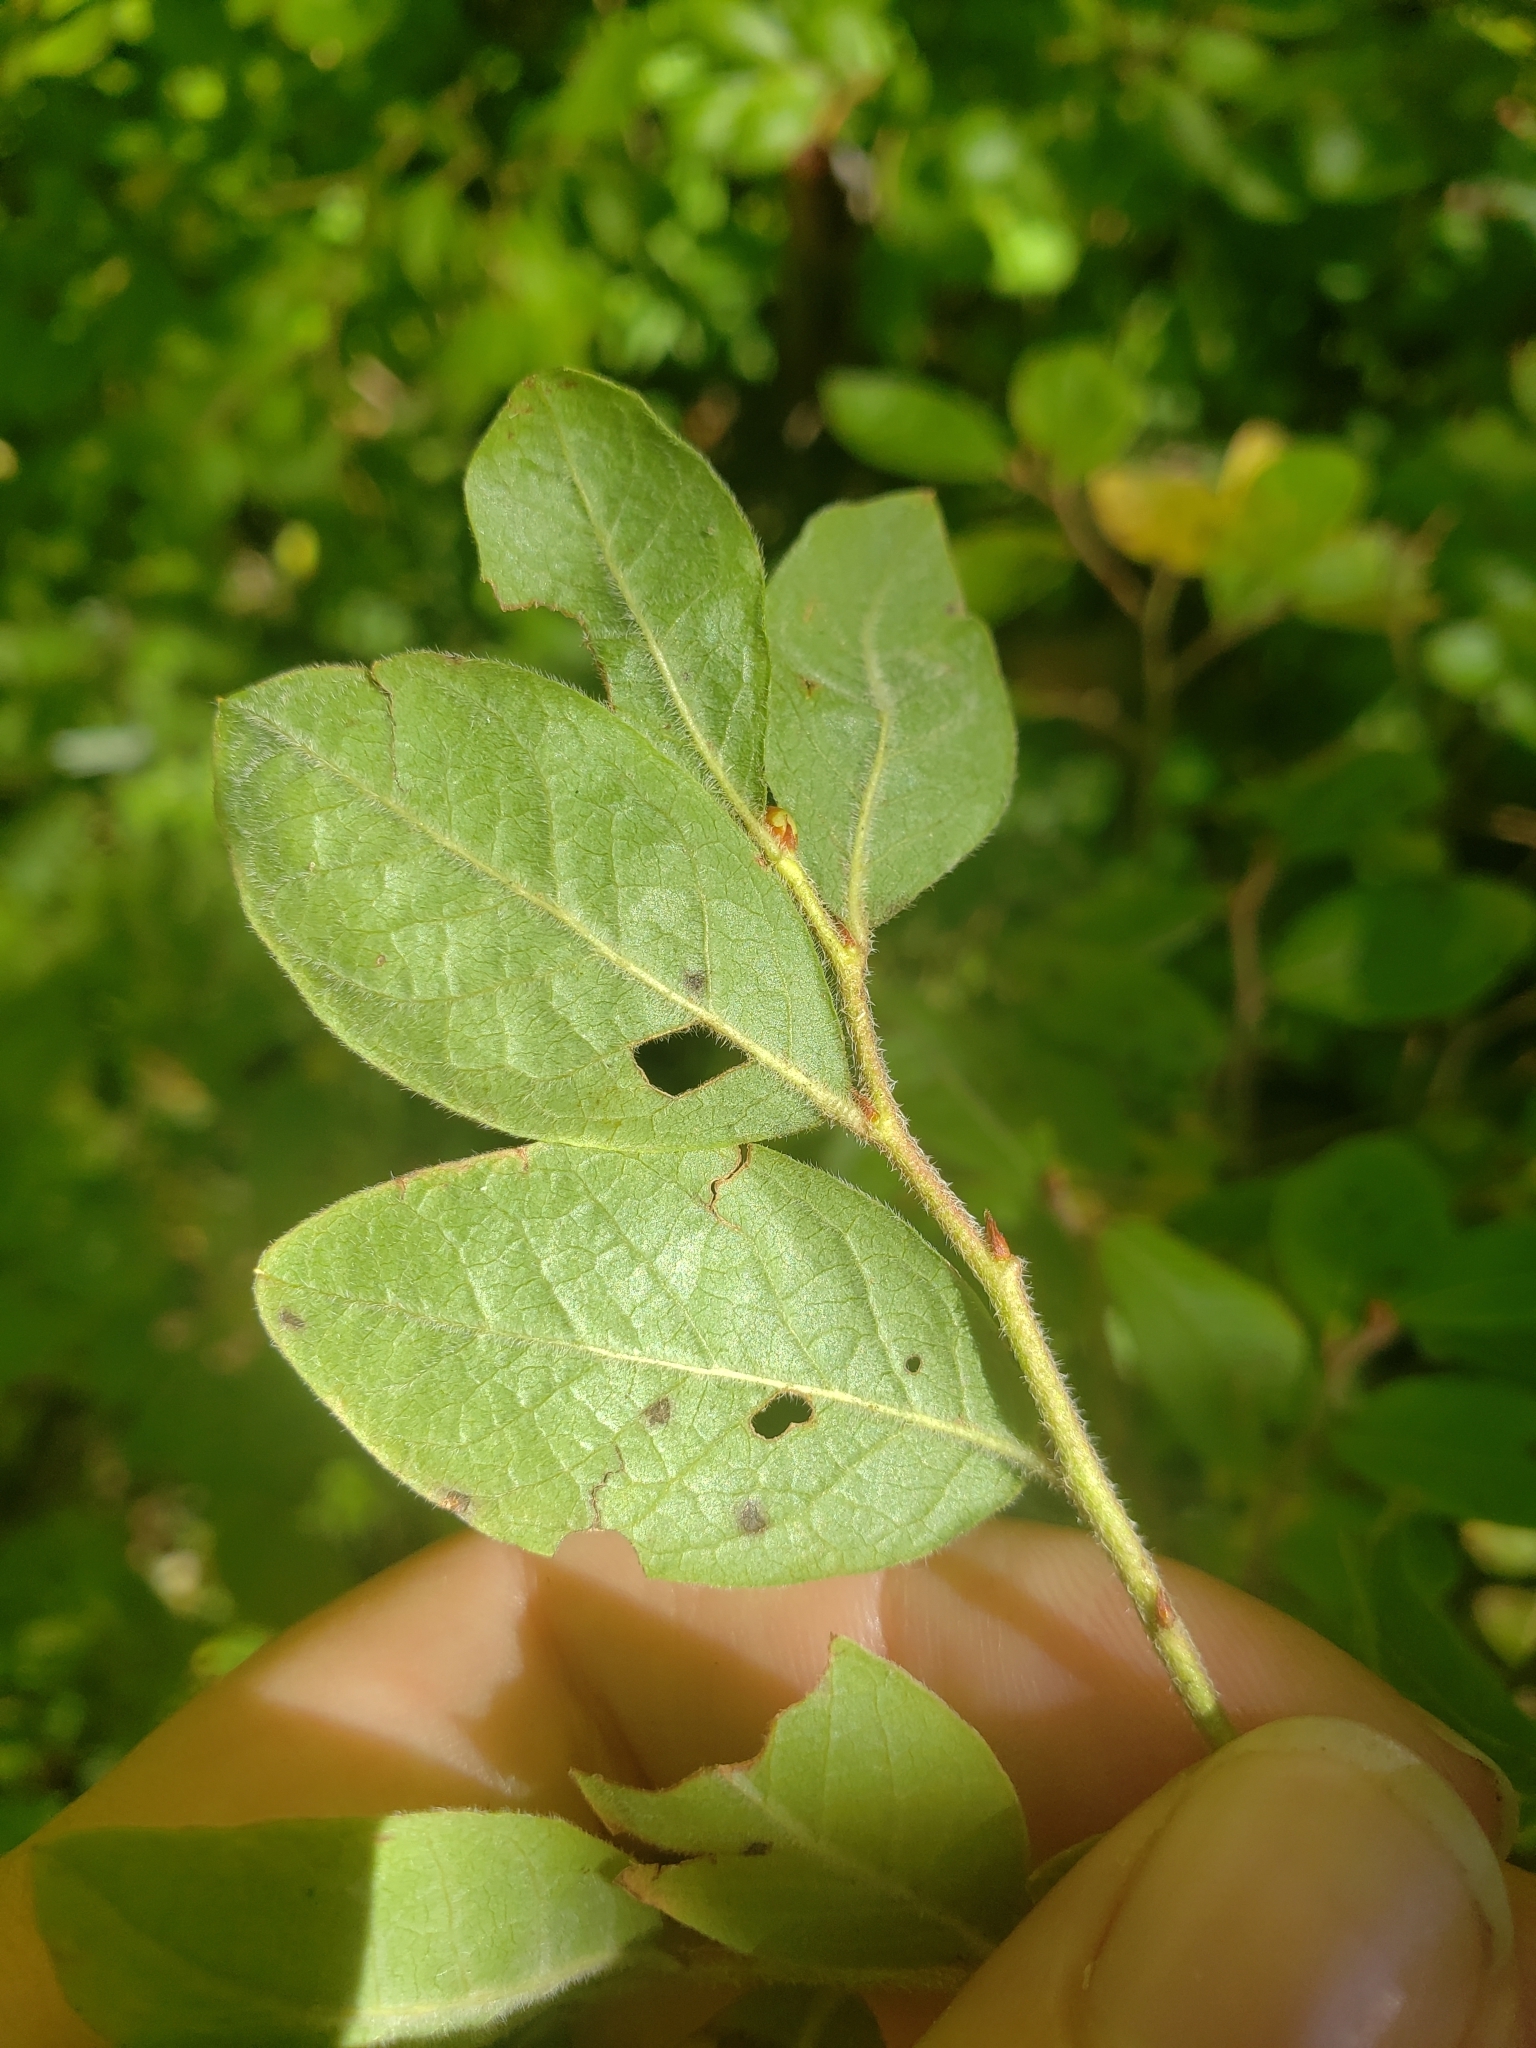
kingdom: Plantae
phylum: Tracheophyta
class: Magnoliopsida
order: Ericales
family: Ericaceae
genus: Vaccinium
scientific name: Vaccinium myrtilloides
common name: Canada blueberry
